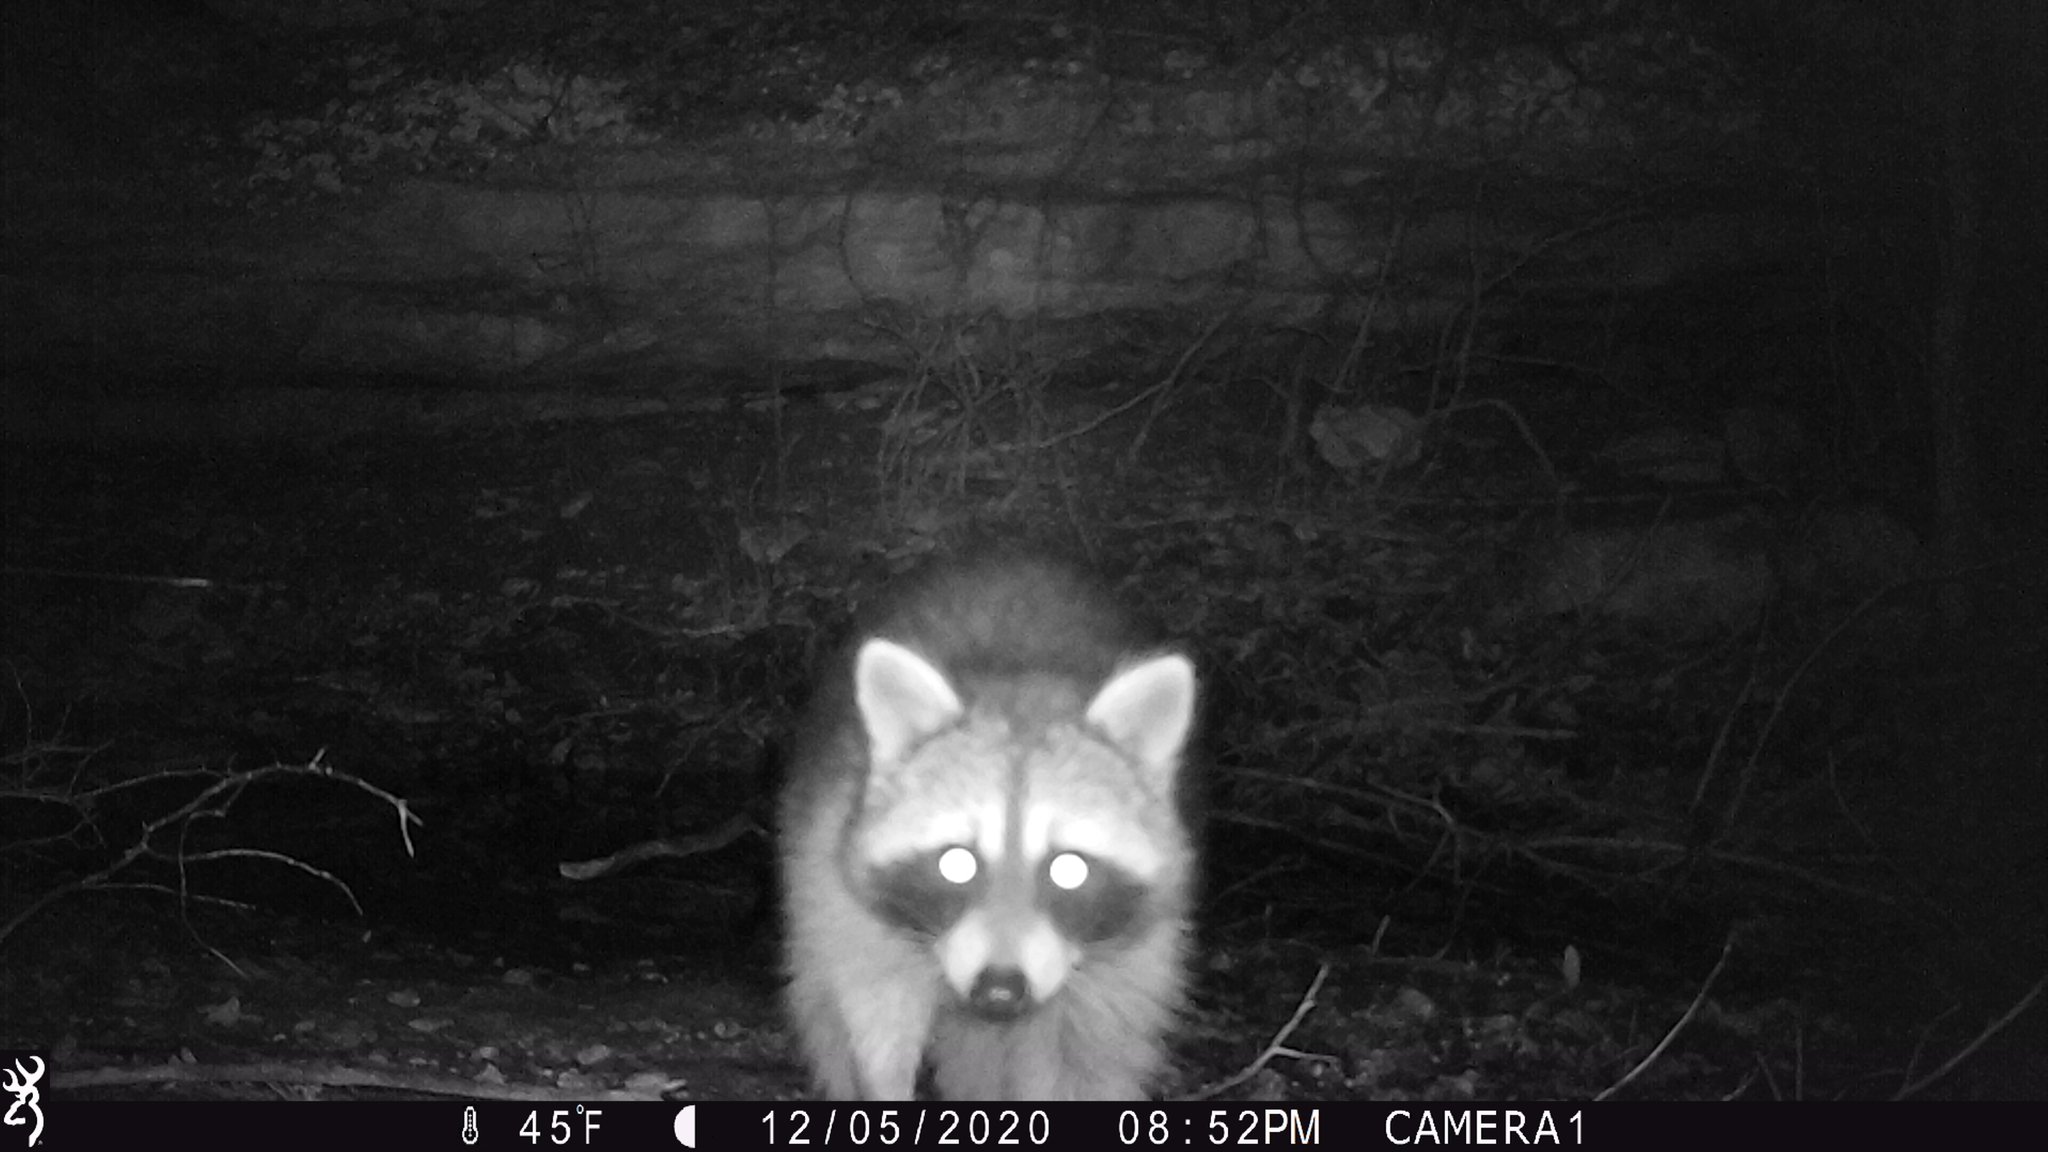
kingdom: Animalia
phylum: Chordata
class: Mammalia
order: Carnivora
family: Procyonidae
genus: Procyon
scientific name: Procyon lotor
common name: Raccoon
